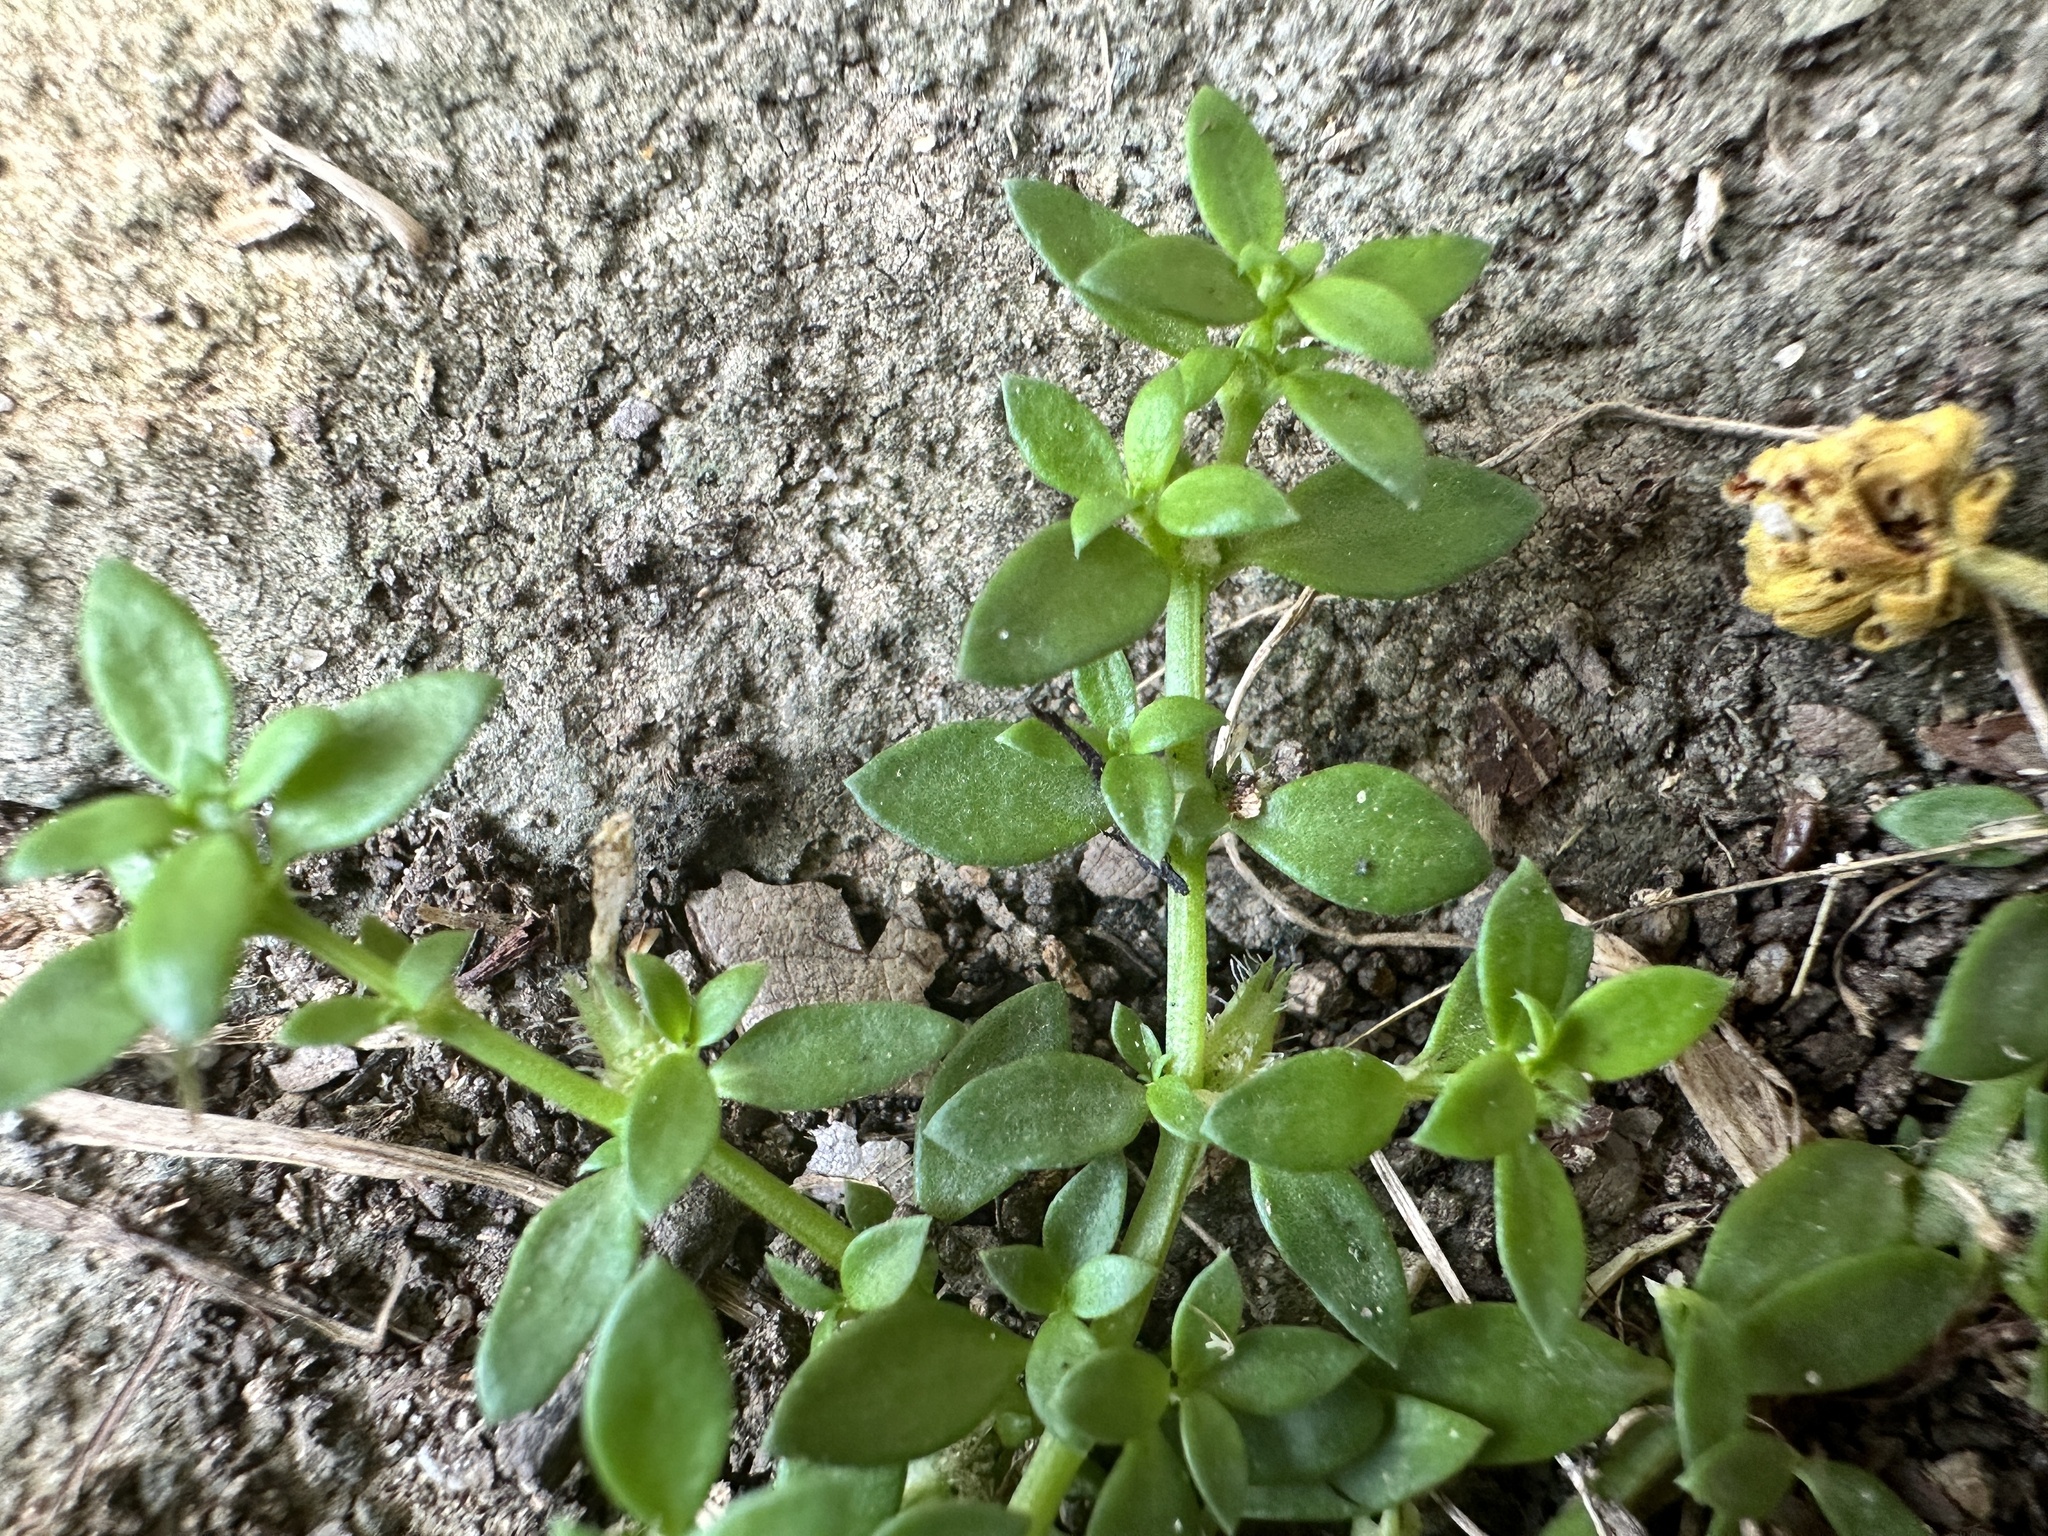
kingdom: Plantae
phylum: Tracheophyta
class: Magnoliopsida
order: Gentianales
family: Rubiaceae
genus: Dentella
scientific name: Dentella repens
